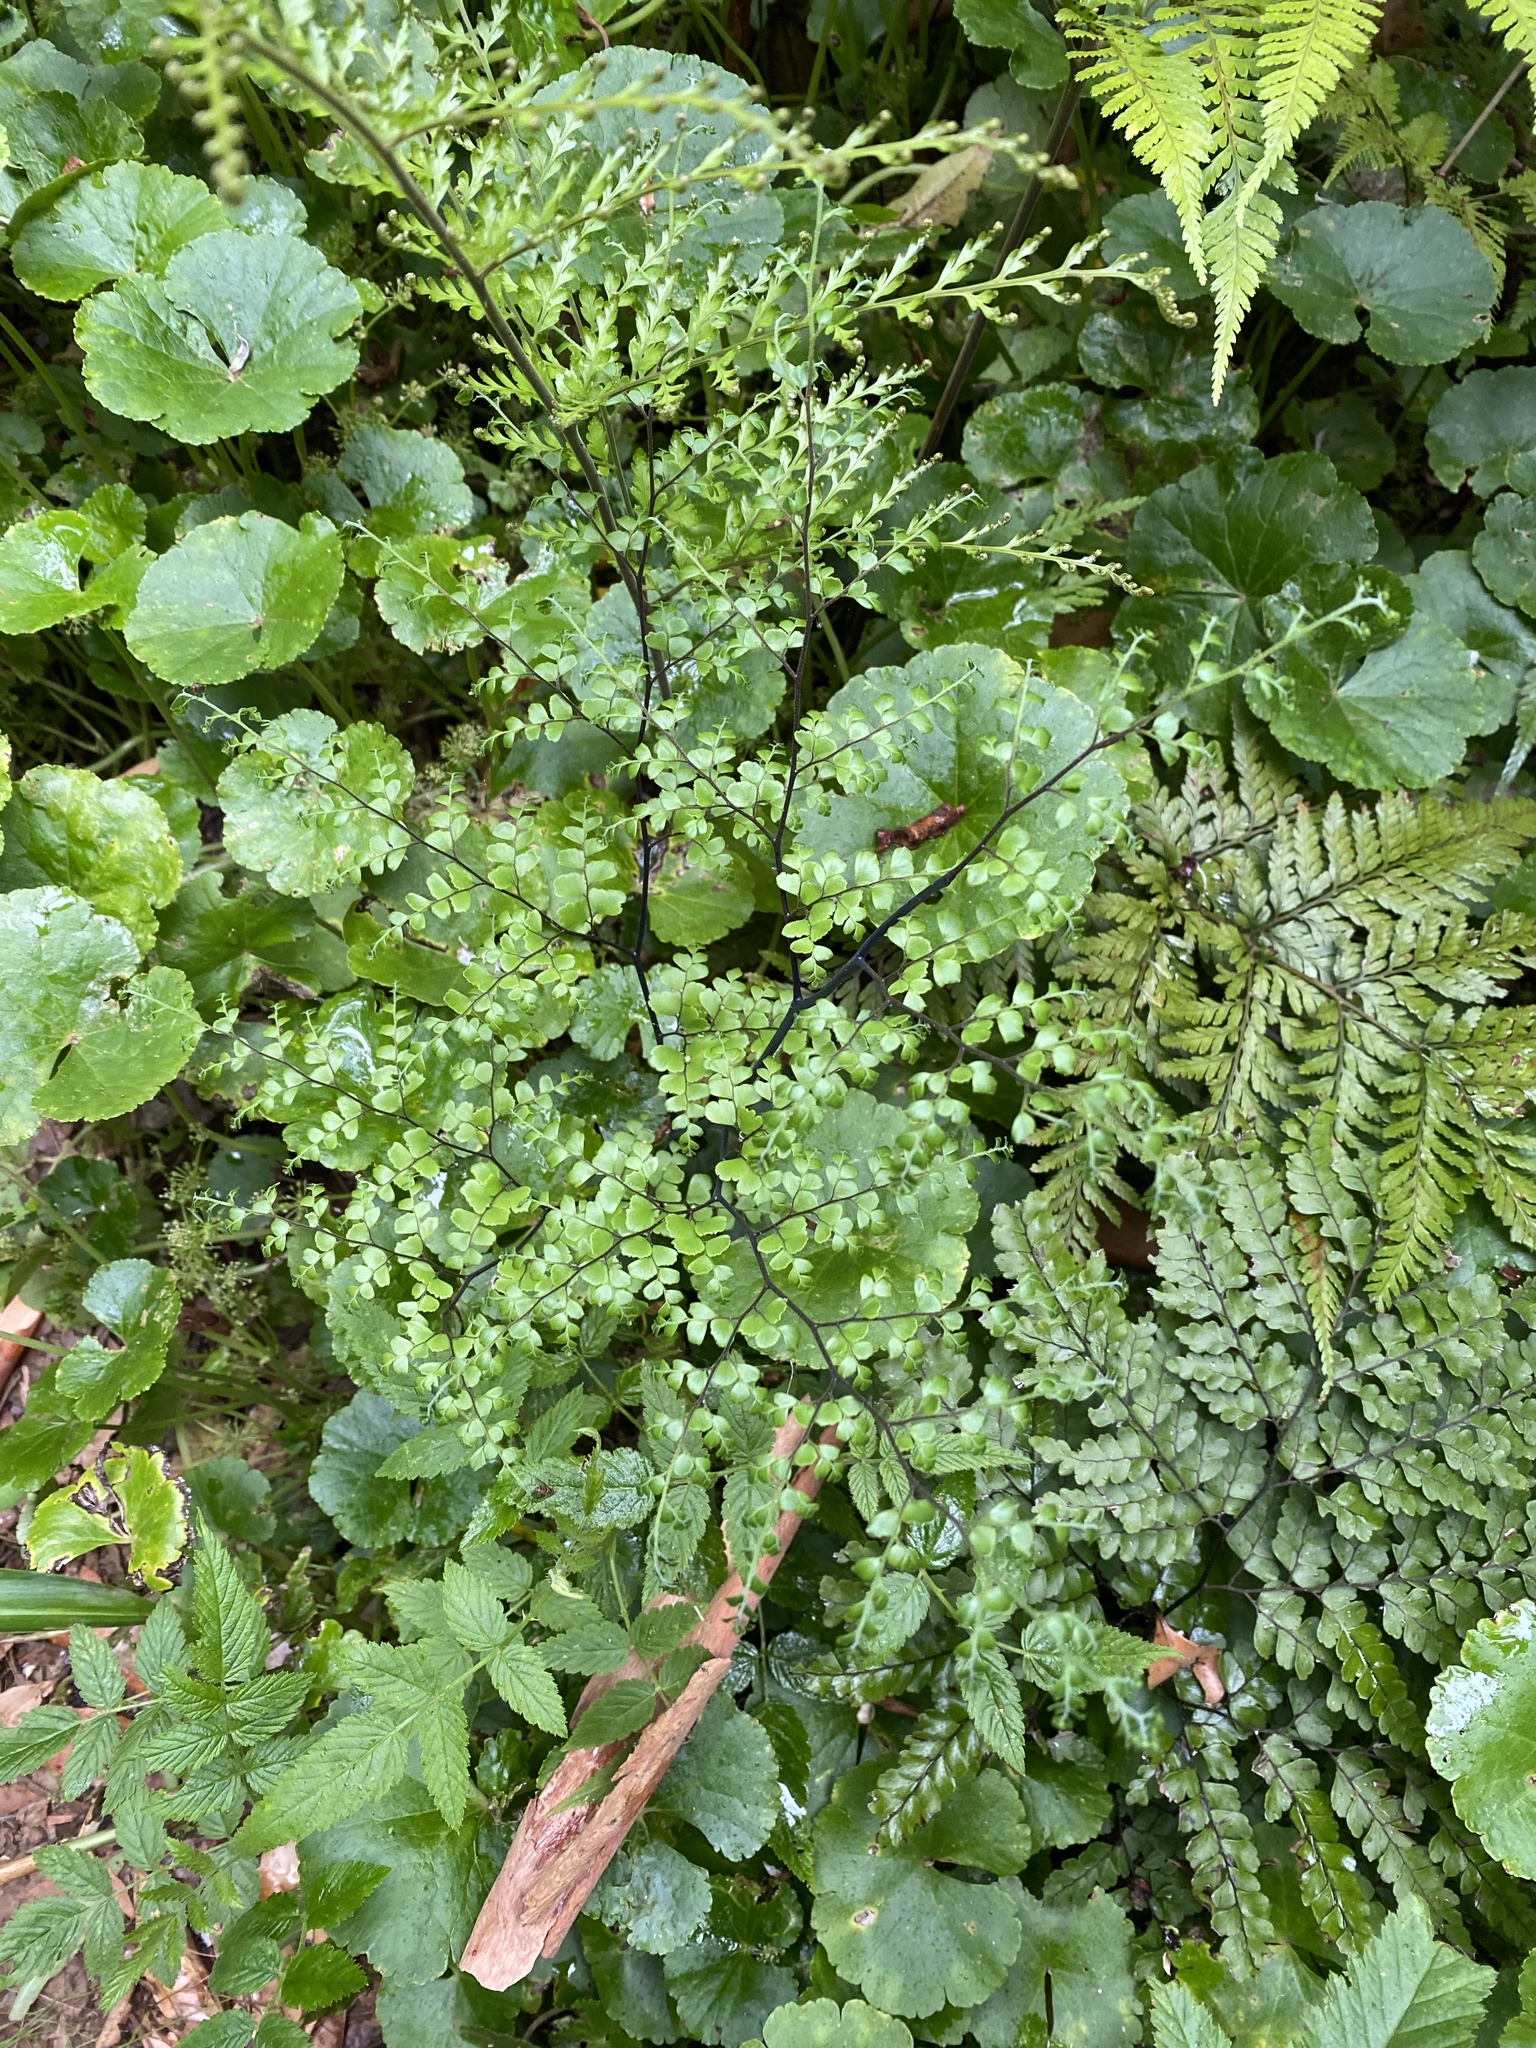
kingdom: Plantae
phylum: Tracheophyta
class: Polypodiopsida
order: Polypodiales
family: Pteridaceae
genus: Adiantum
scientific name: Adiantum formosum
